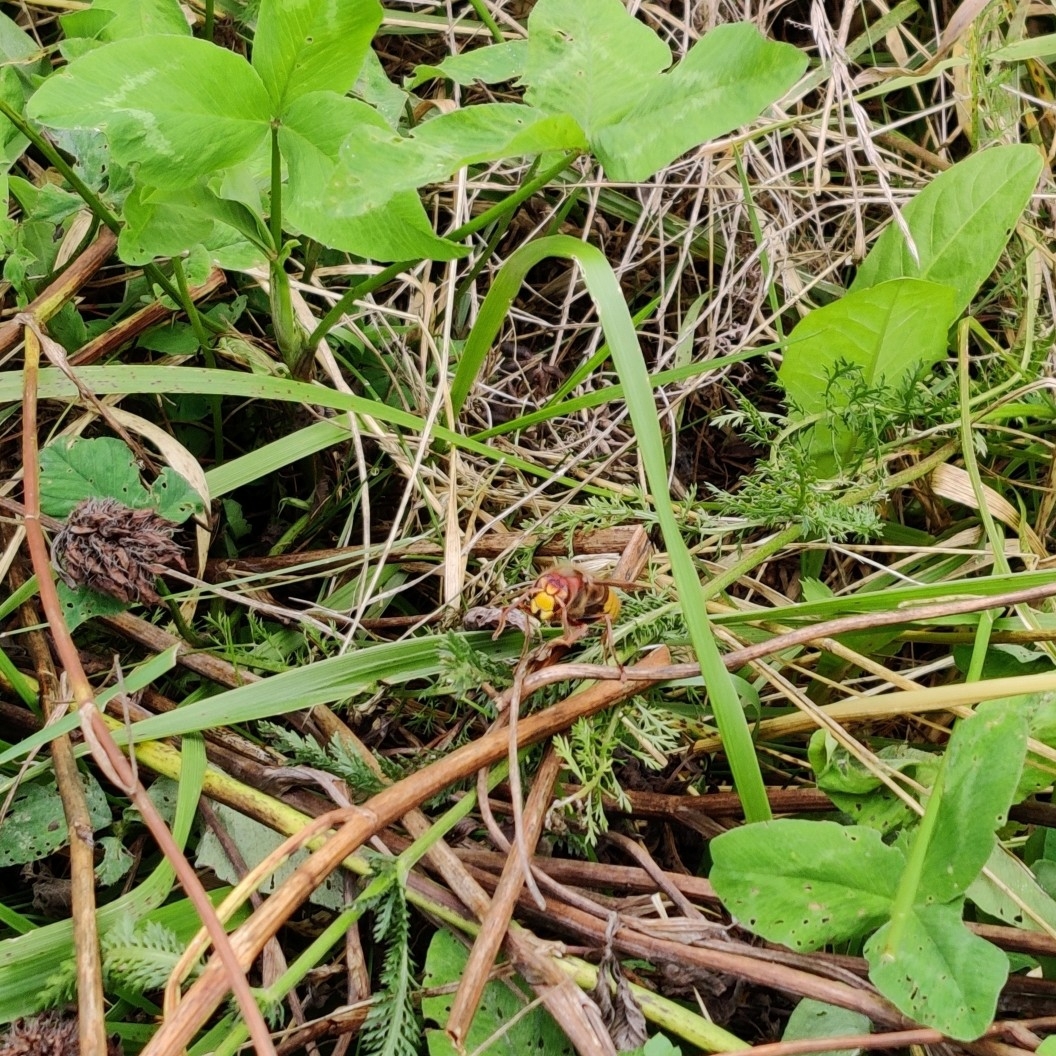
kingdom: Animalia
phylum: Arthropoda
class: Insecta
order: Hymenoptera
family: Vespidae
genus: Vespa
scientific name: Vespa crabro
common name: Hornet
